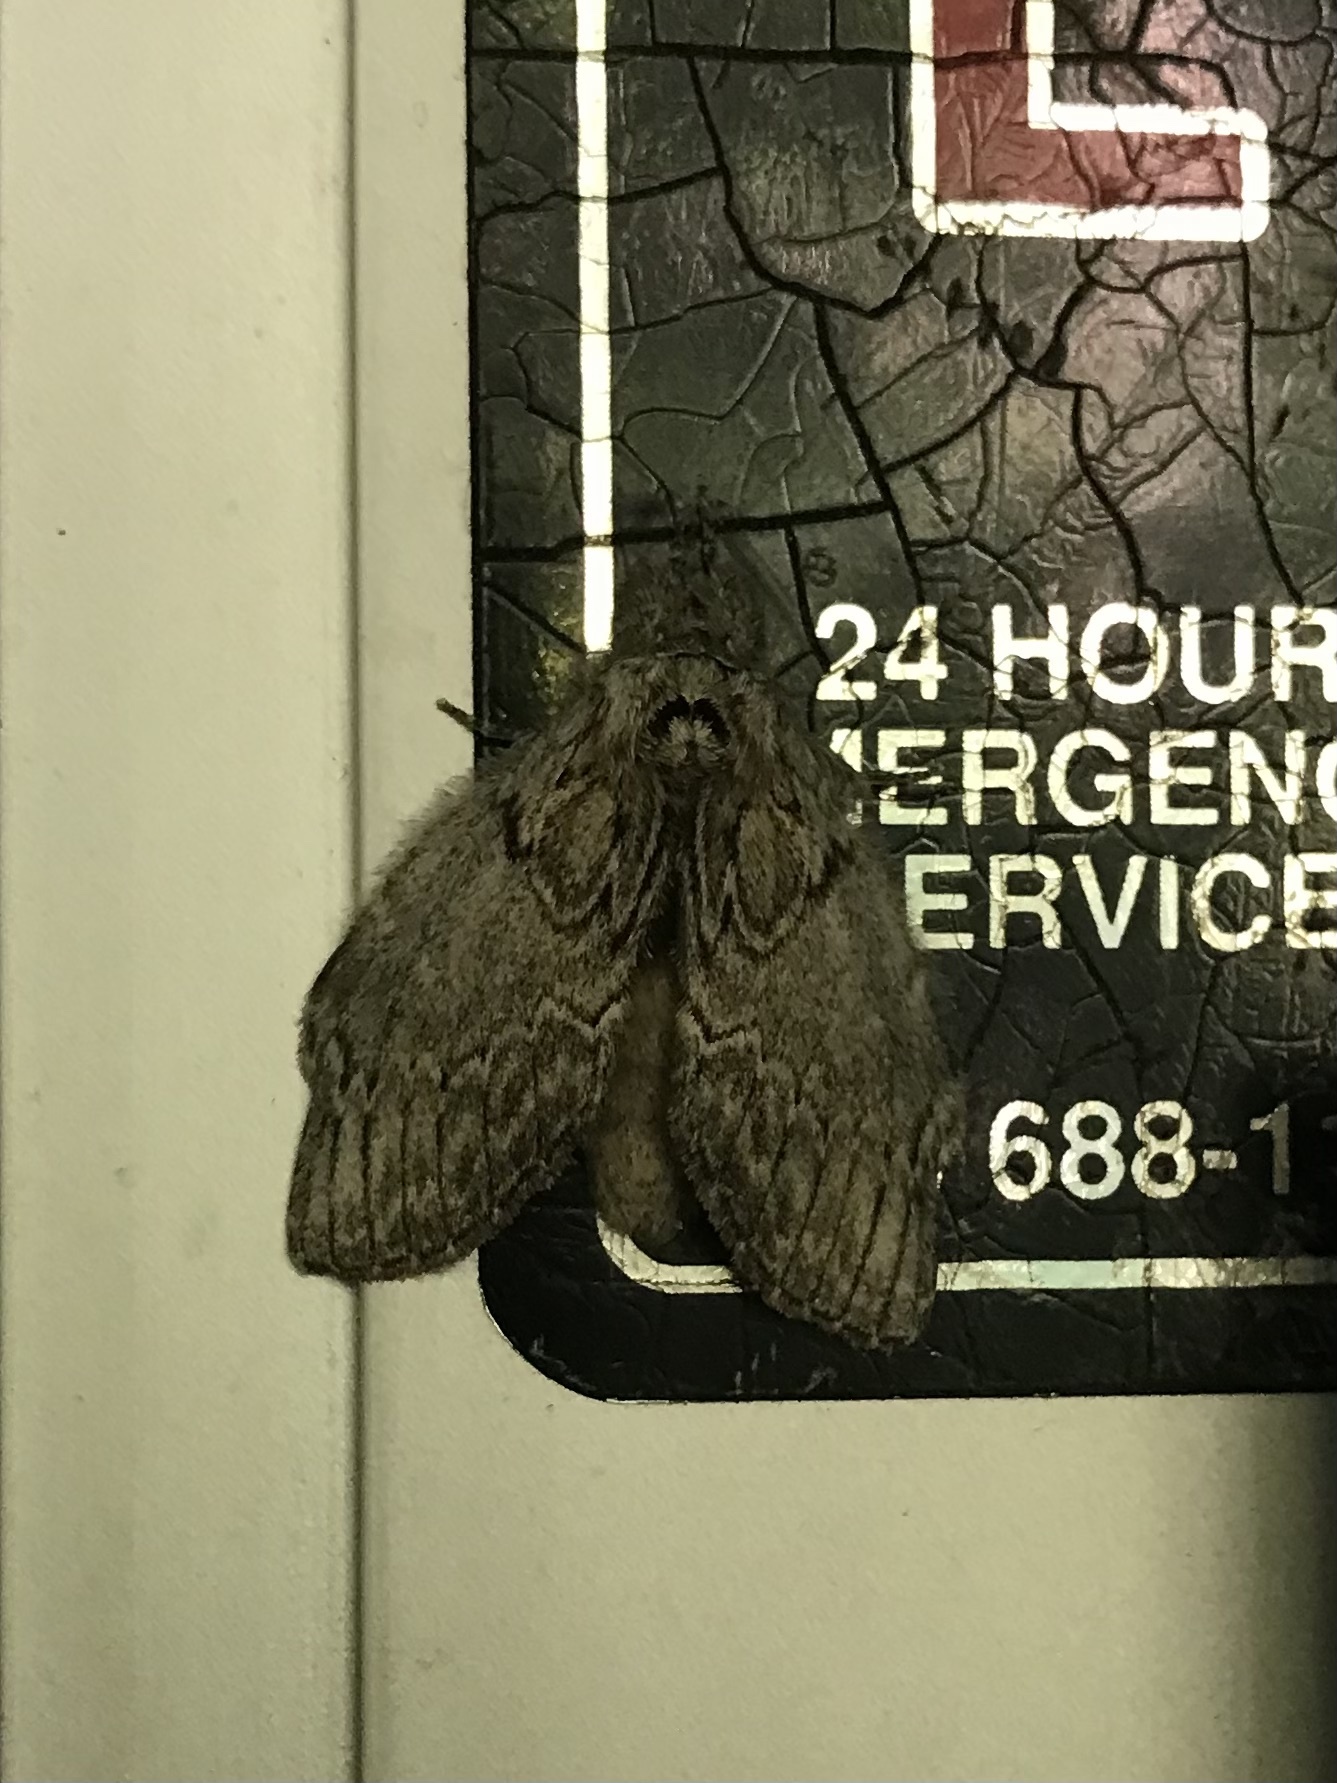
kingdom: Animalia
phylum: Arthropoda
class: Insecta
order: Lepidoptera
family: Notodontidae
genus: Peridea
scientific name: Peridea basitriens
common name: Oval-based prominent
